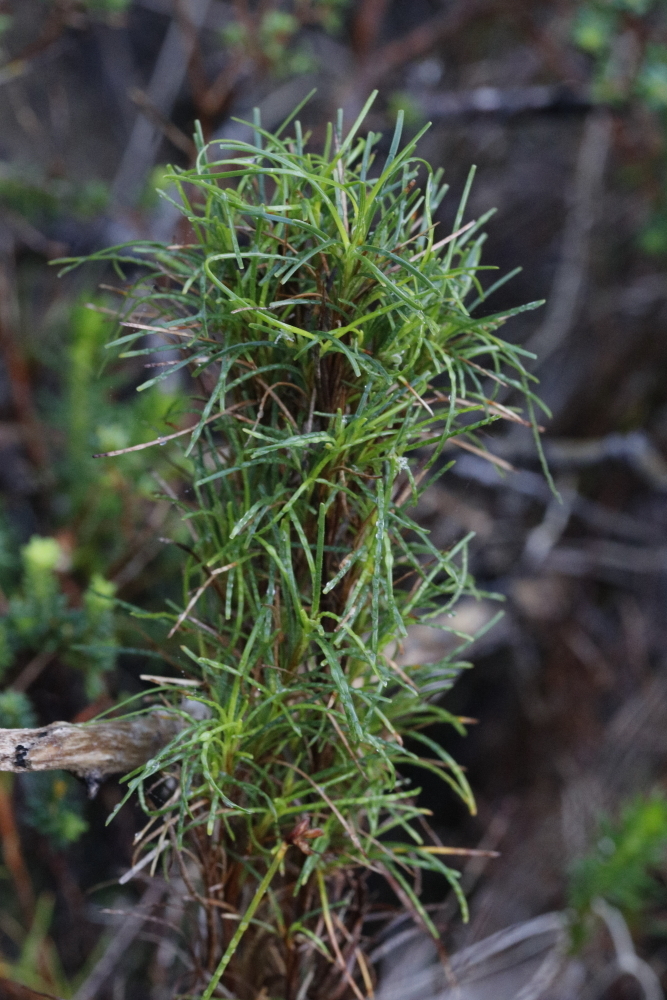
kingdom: Plantae
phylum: Tracheophyta
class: Liliopsida
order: Poales
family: Cyperaceae
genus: Ficinia
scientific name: Ficinia ramosissima
